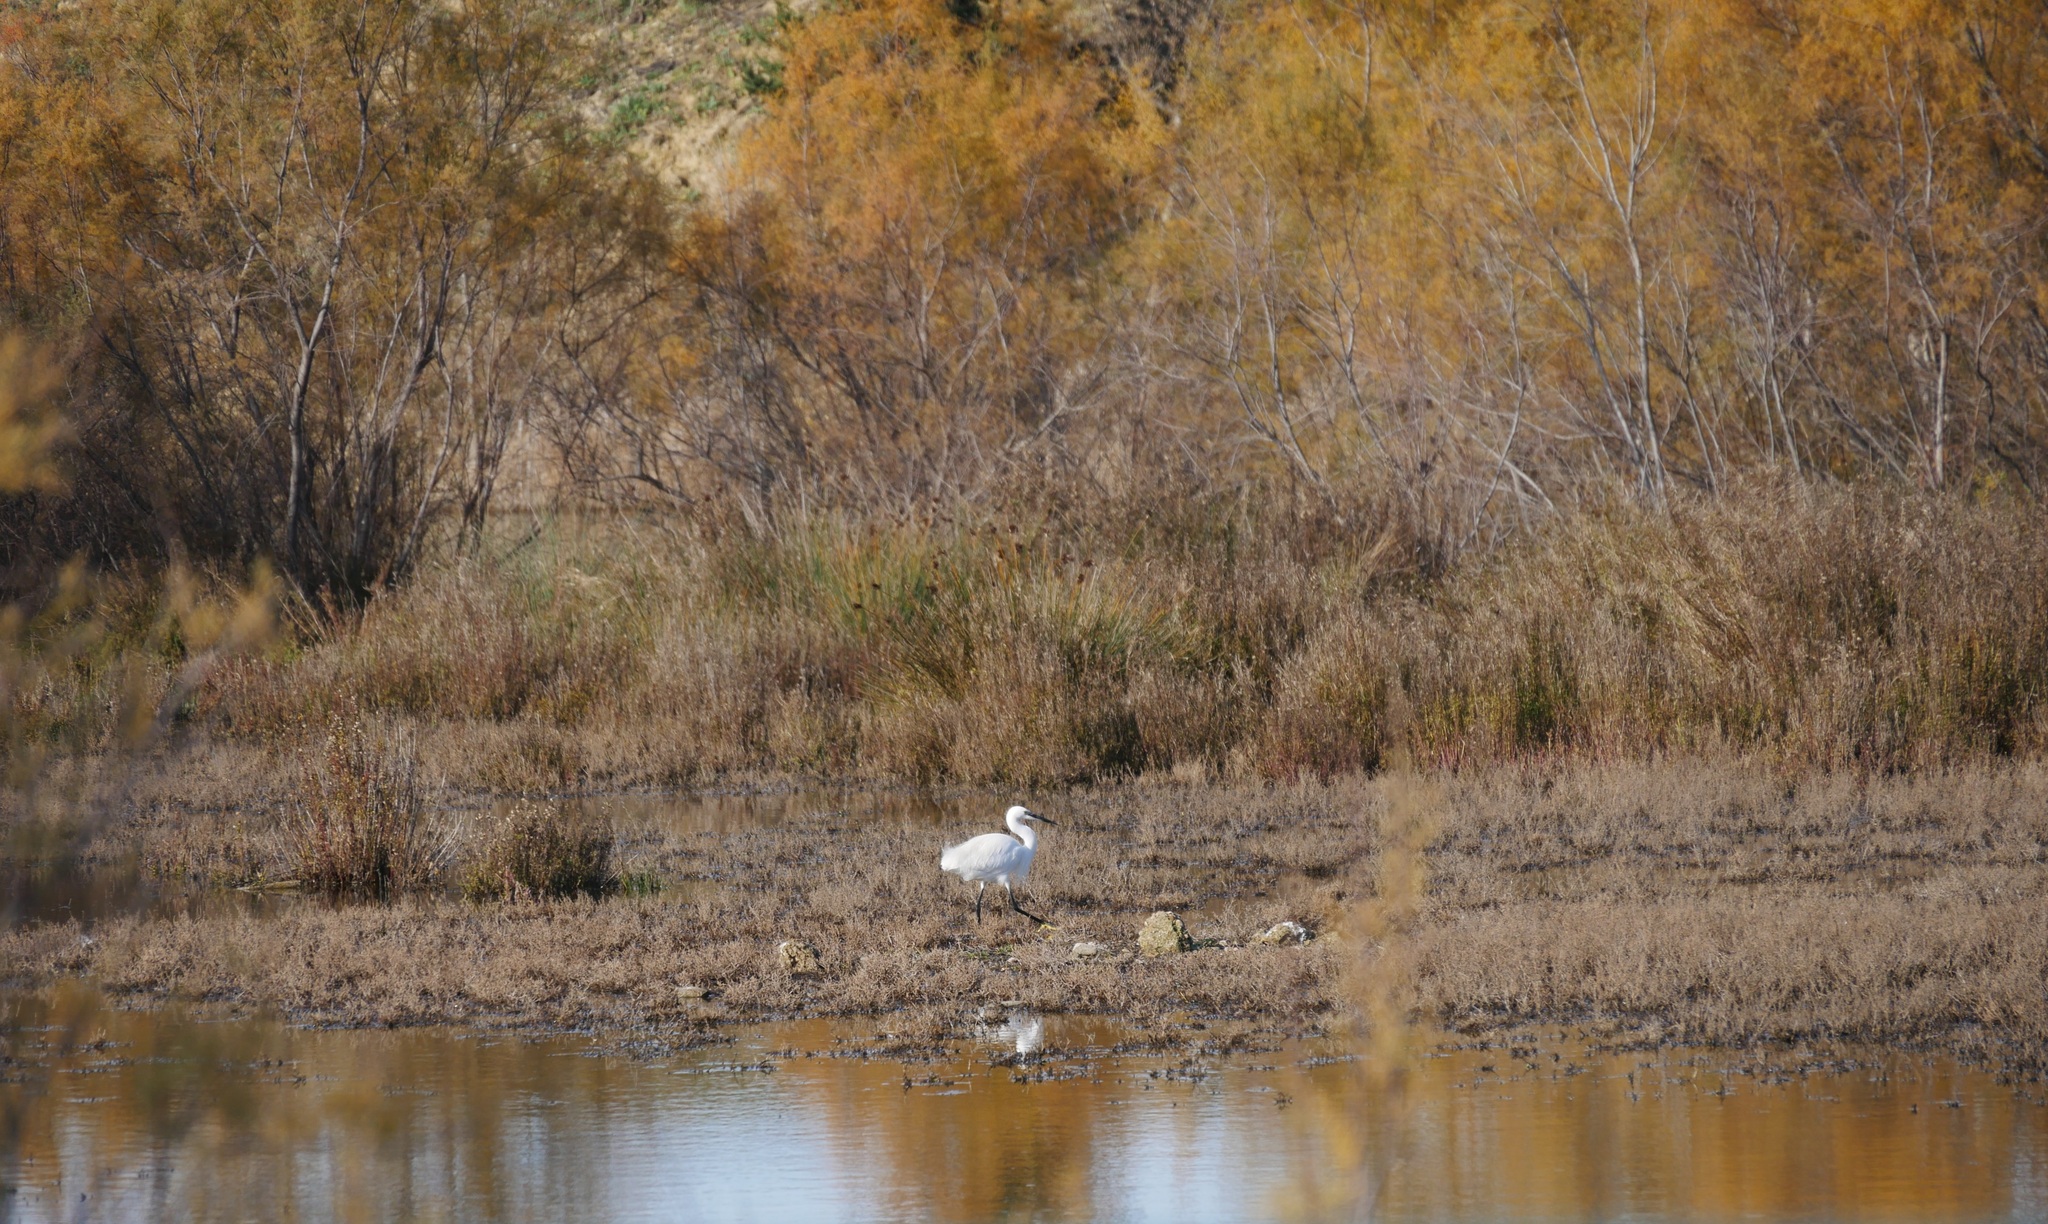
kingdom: Animalia
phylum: Chordata
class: Aves
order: Pelecaniformes
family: Ardeidae
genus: Egretta
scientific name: Egretta garzetta
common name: Little egret
